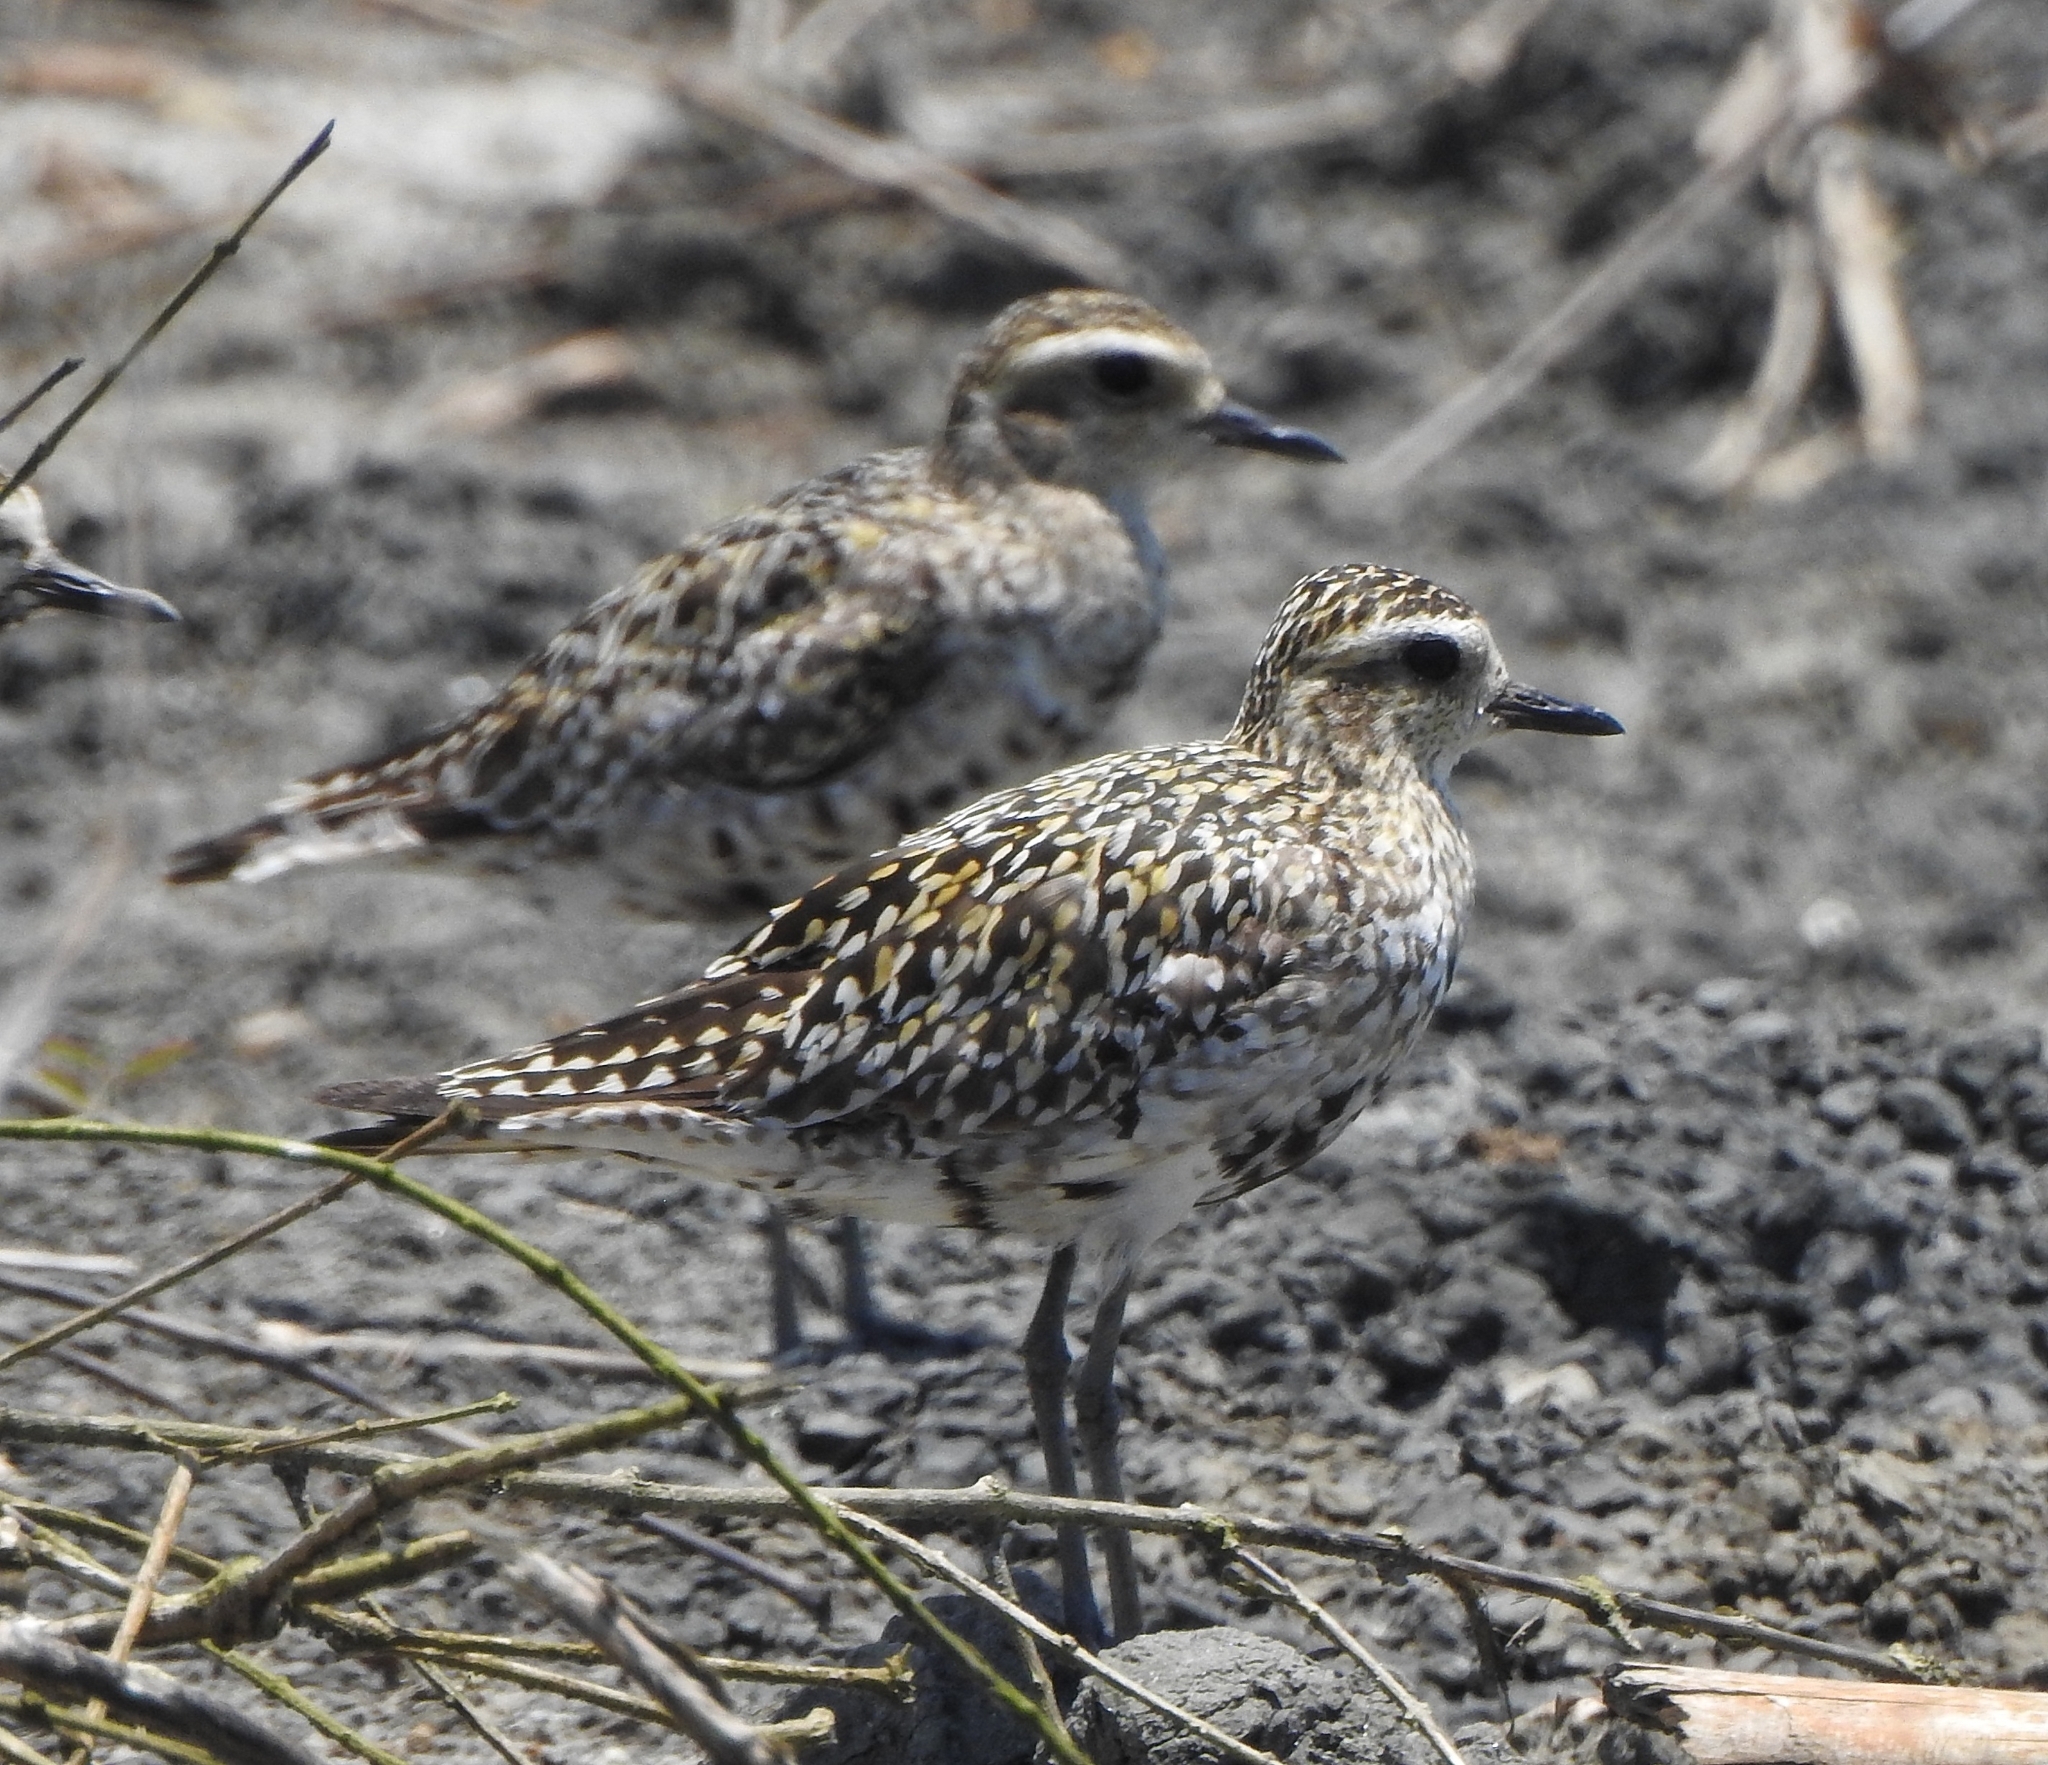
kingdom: Animalia
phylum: Chordata
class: Aves
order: Charadriiformes
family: Charadriidae
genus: Pluvialis
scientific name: Pluvialis fulva
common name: Pacific golden plover
